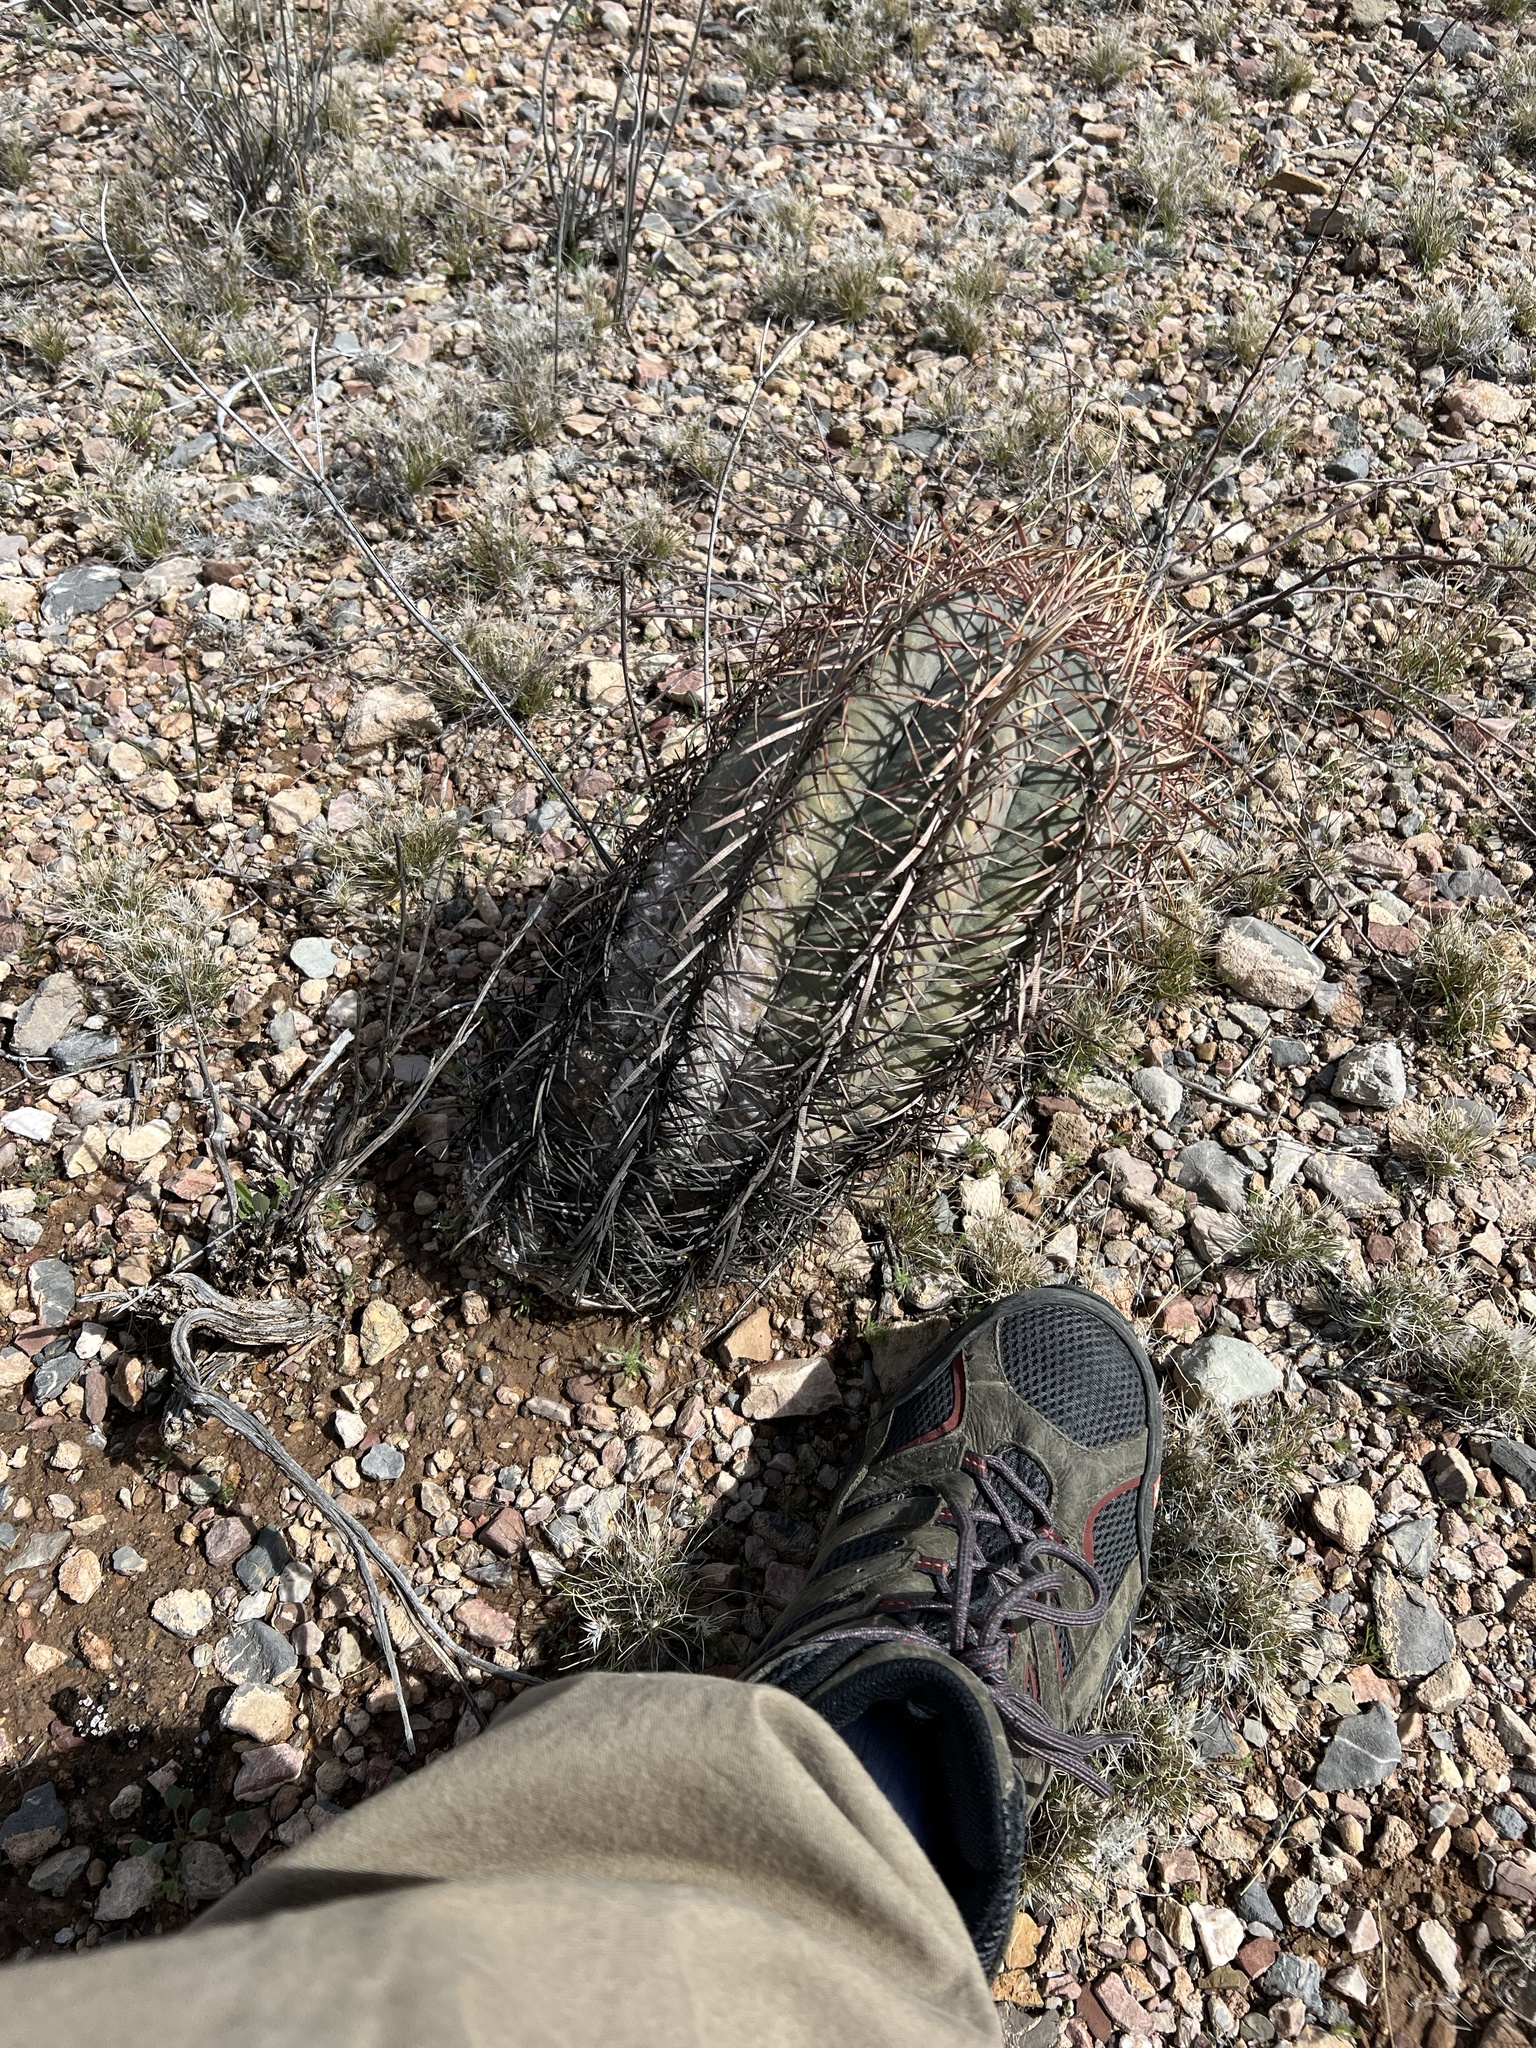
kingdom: Plantae
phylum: Tracheophyta
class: Magnoliopsida
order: Caryophyllales
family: Cactaceae
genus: Echinocactus
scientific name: Echinocactus horizonthalonius
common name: Devilshead
